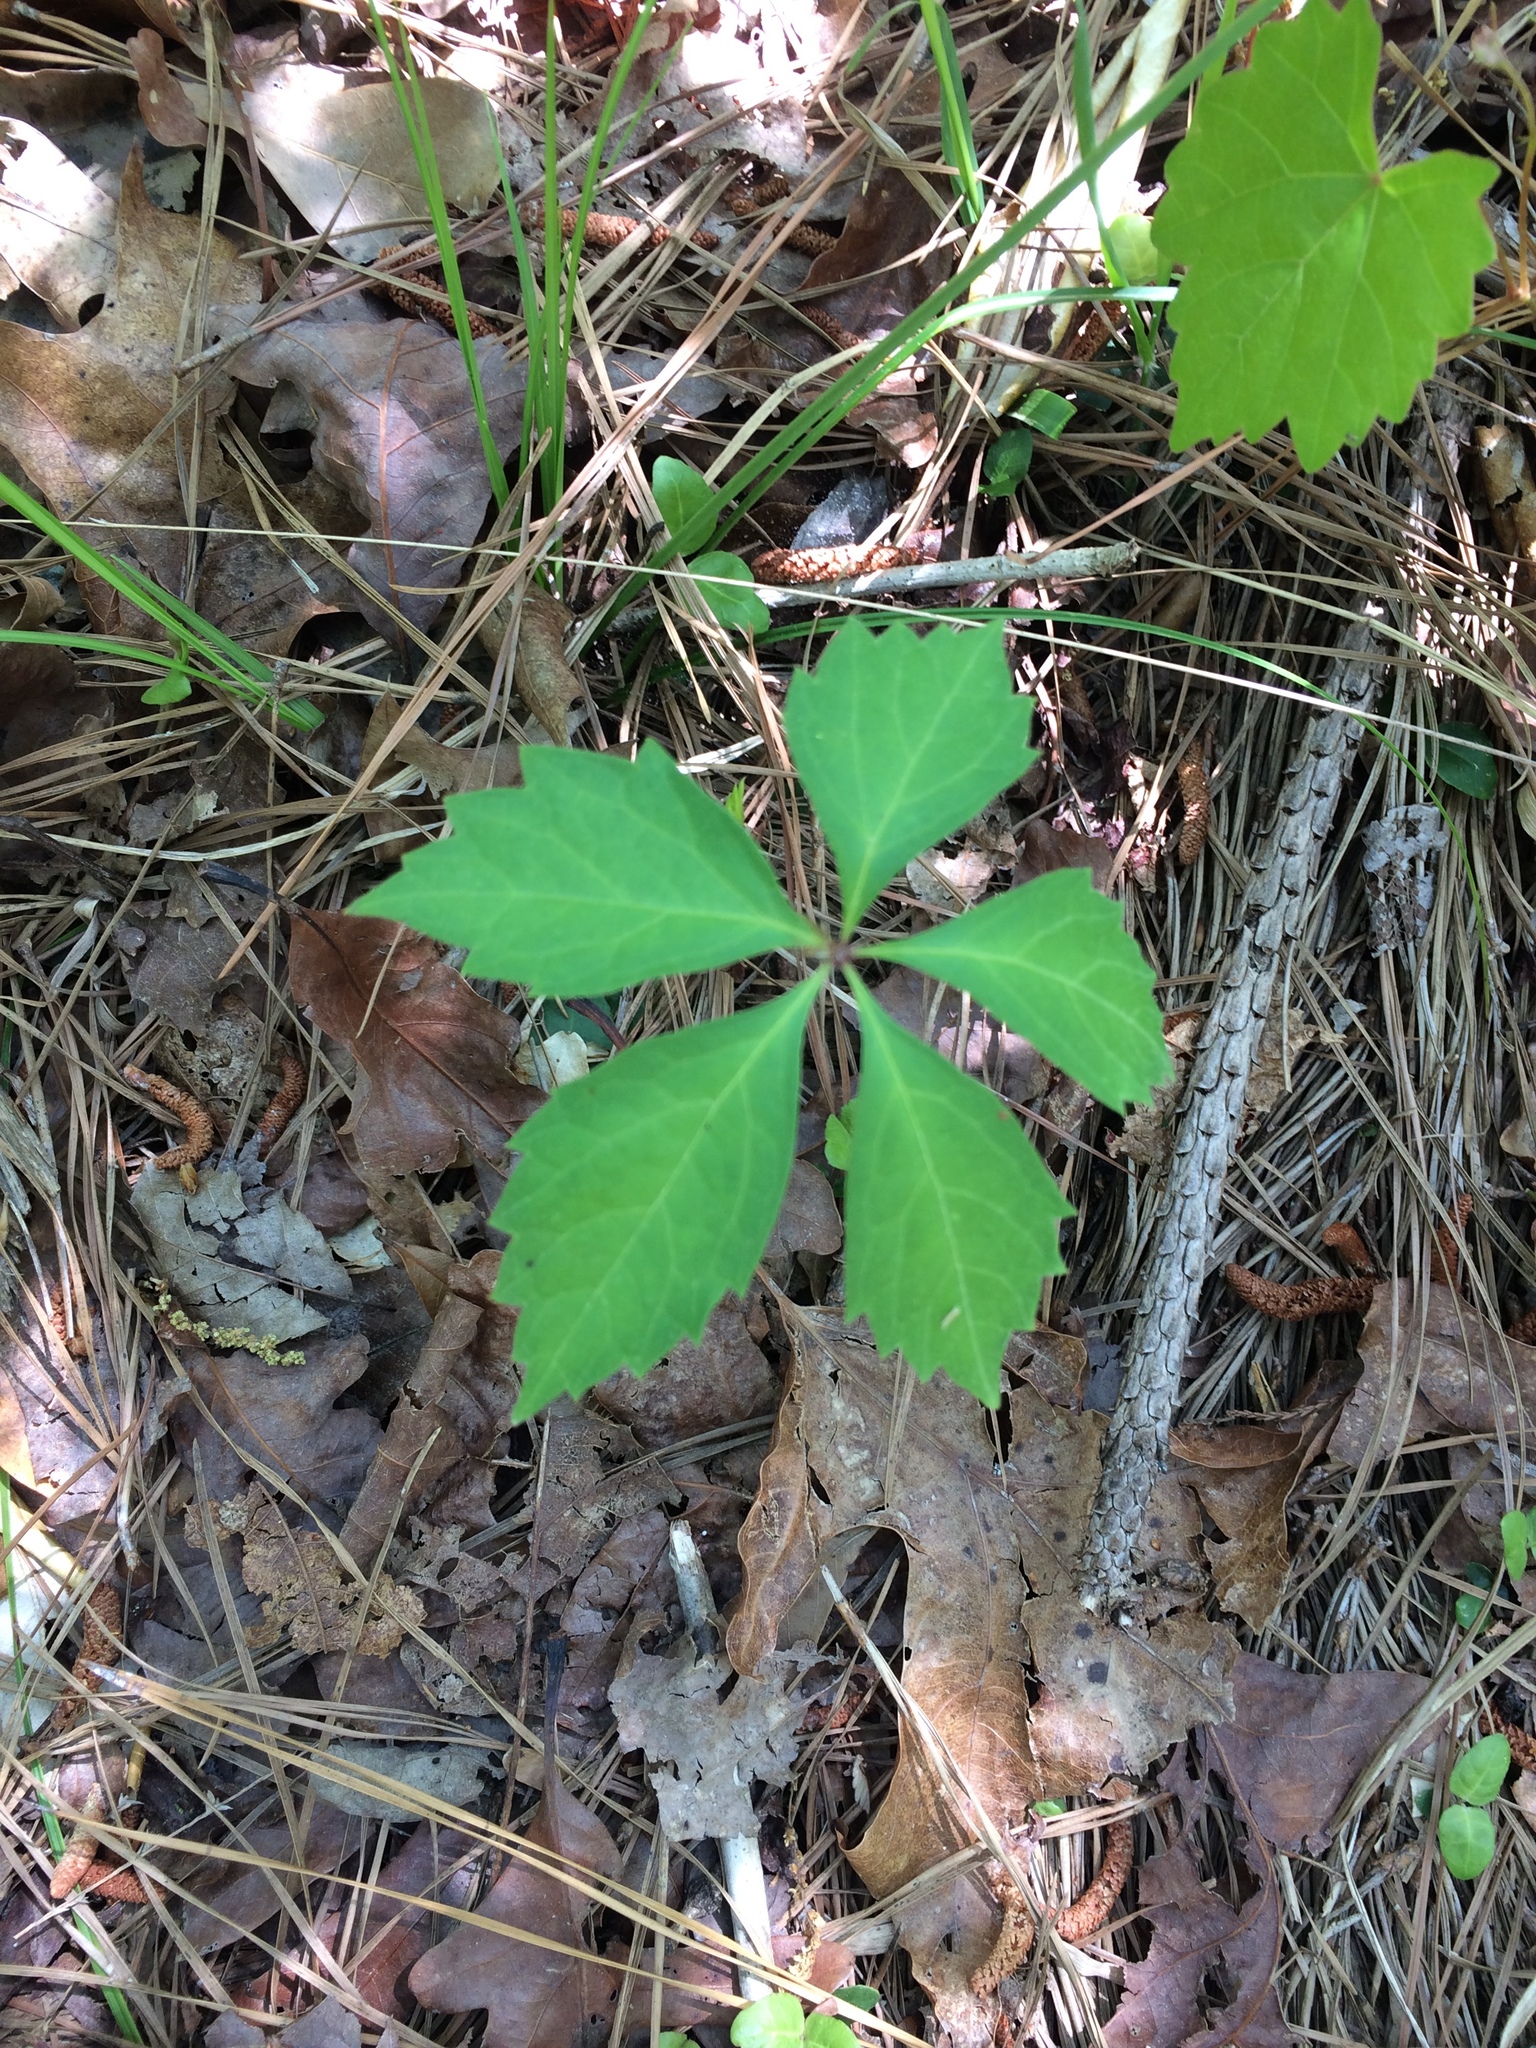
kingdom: Plantae
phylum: Tracheophyta
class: Magnoliopsida
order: Vitales
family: Vitaceae
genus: Parthenocissus
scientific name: Parthenocissus quinquefolia
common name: Virginia-creeper
